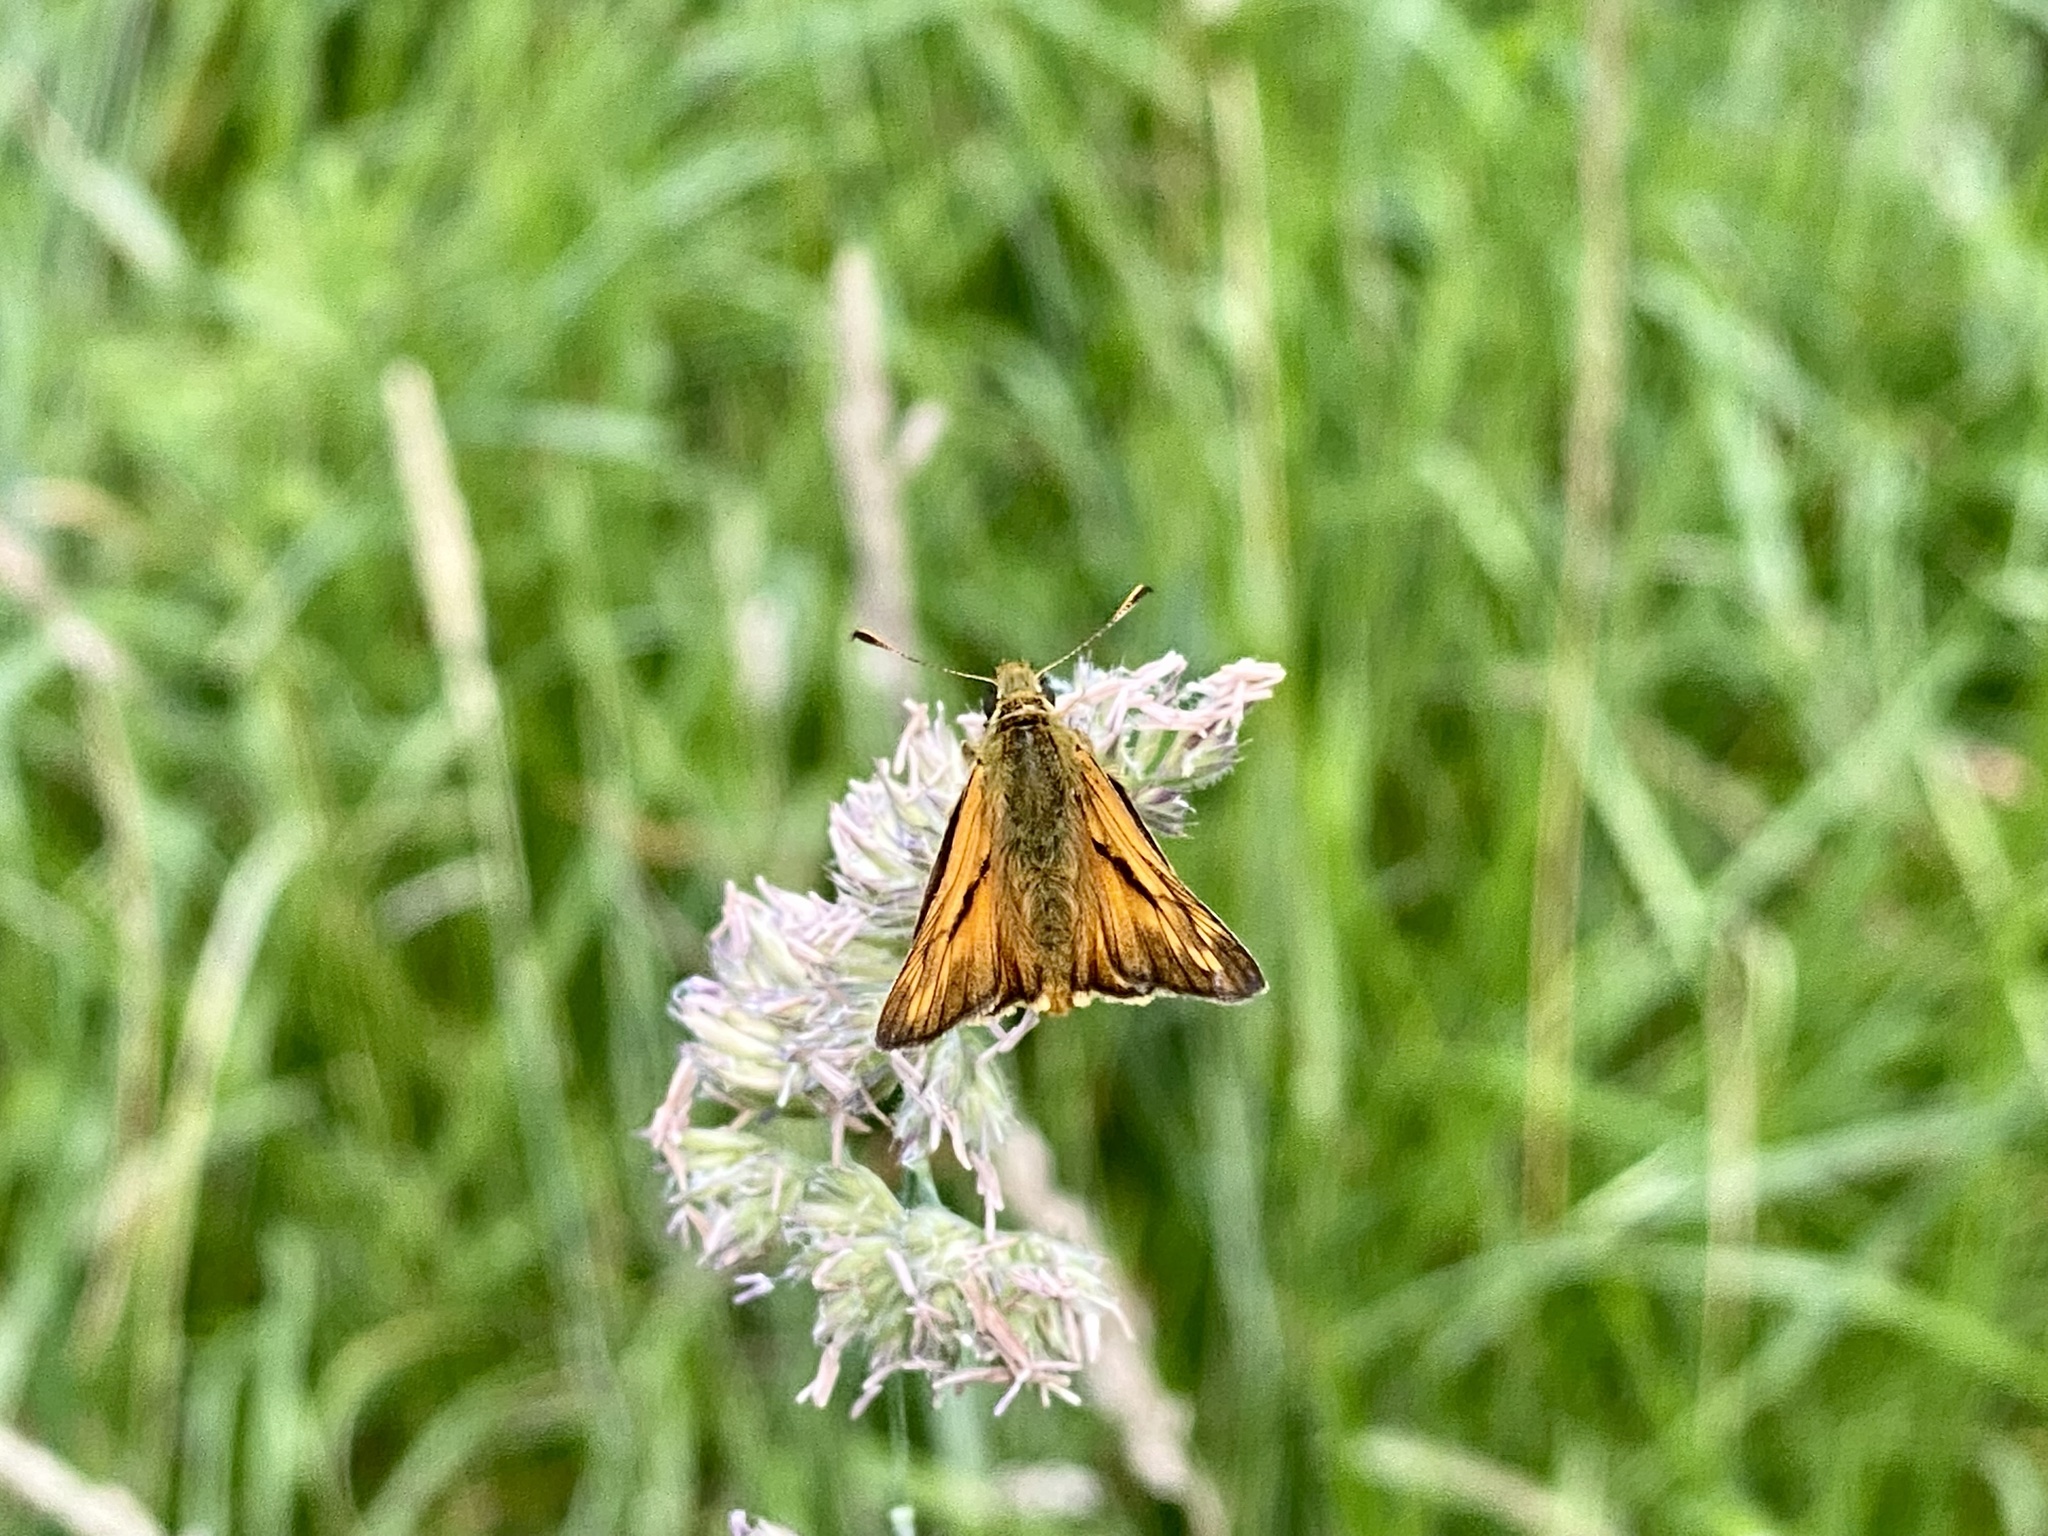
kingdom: Animalia
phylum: Arthropoda
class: Insecta
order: Lepidoptera
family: Hesperiidae
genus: Ochlodes
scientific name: Ochlodes venata
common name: Large skipper
